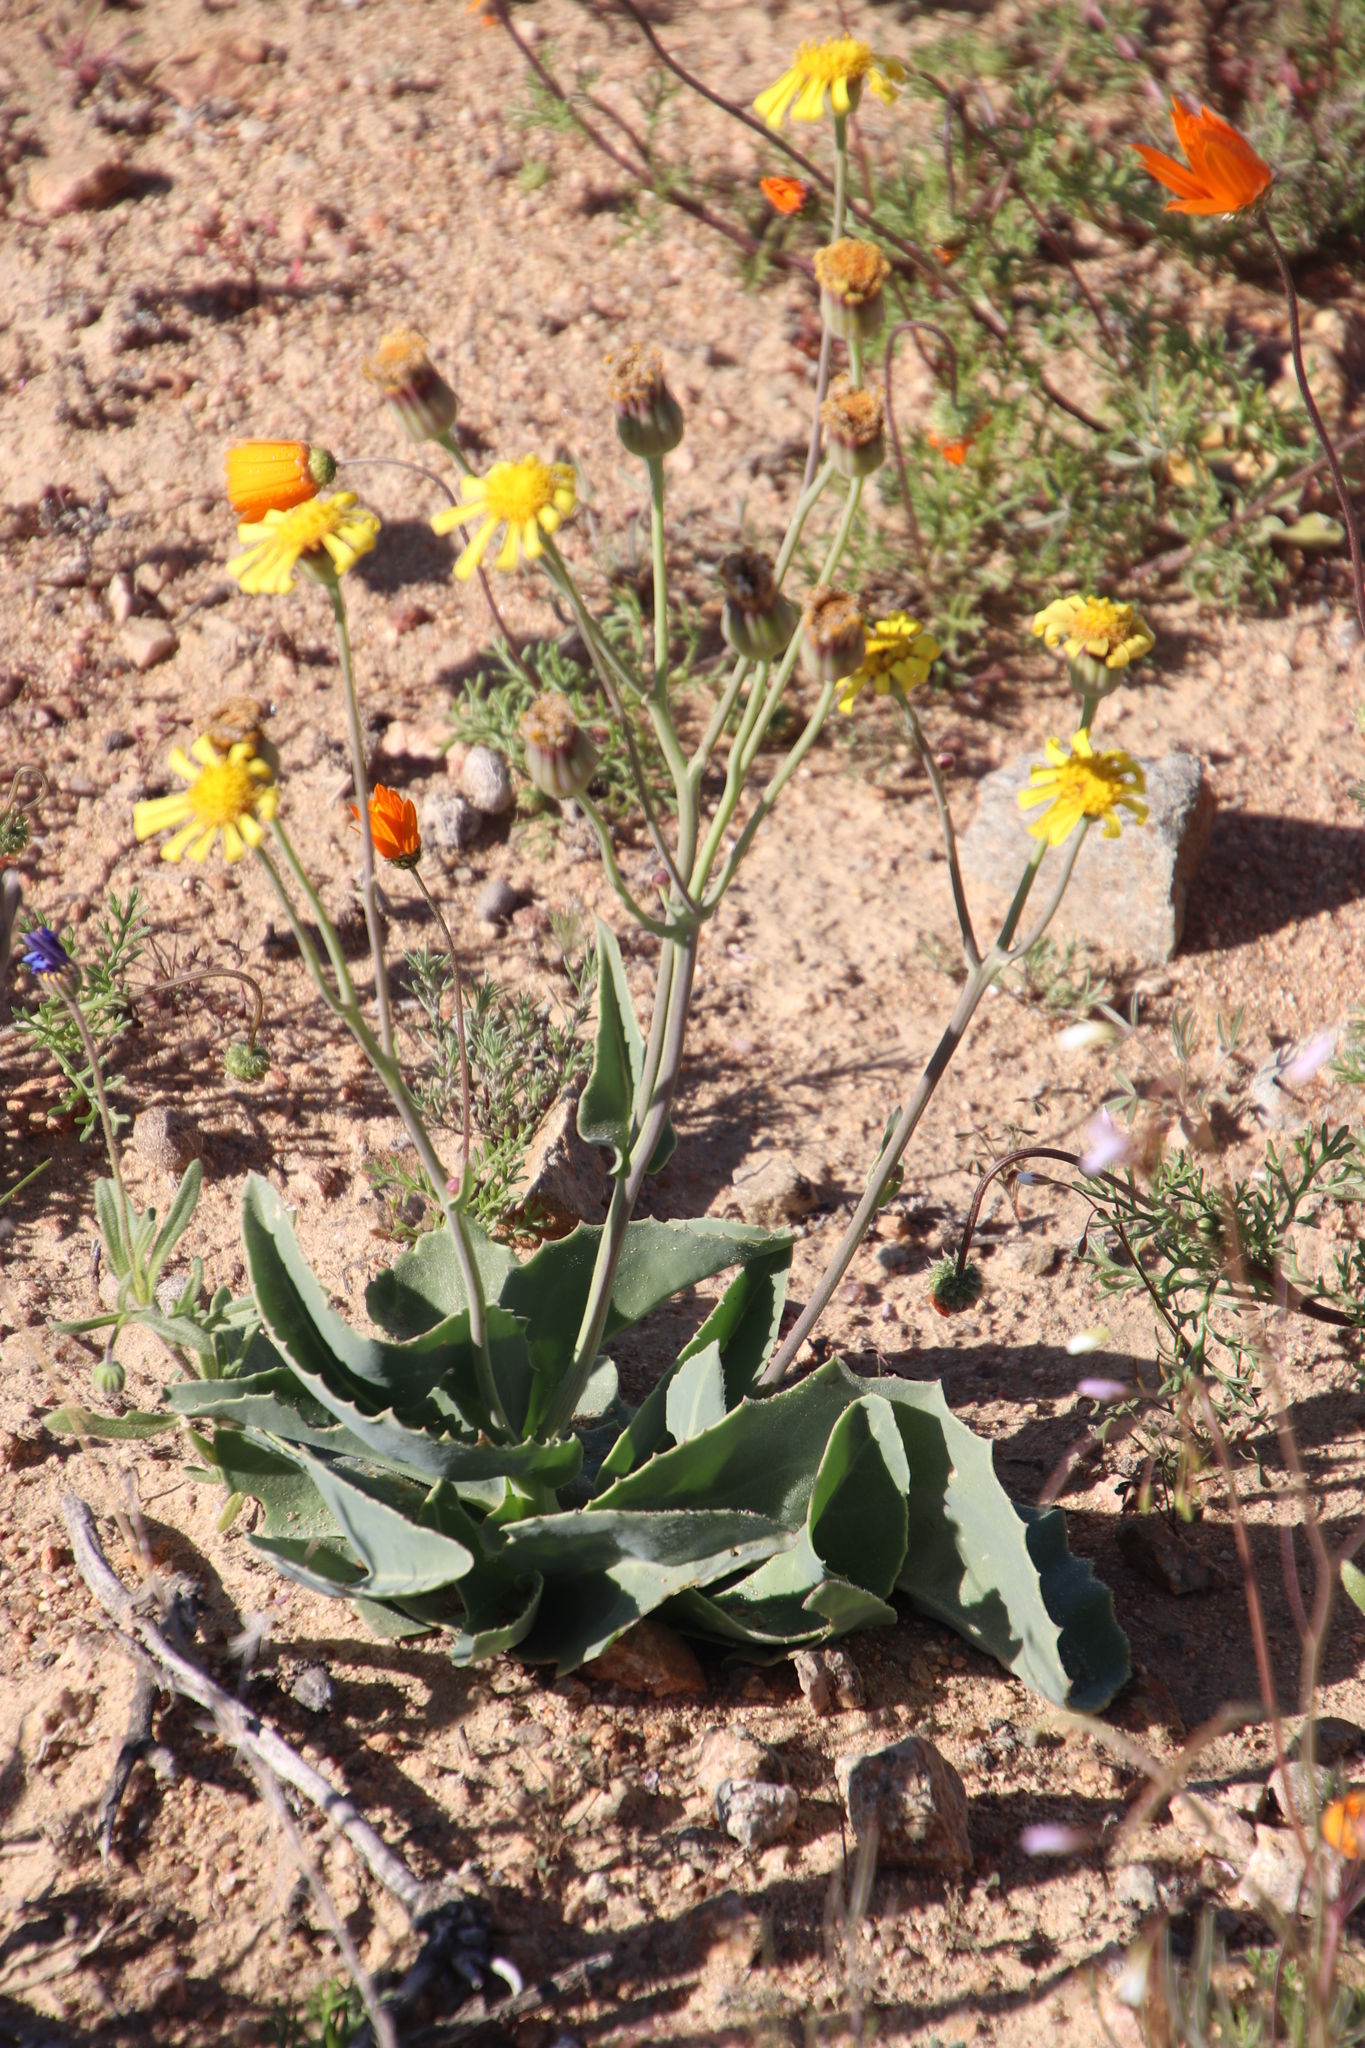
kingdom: Plantae
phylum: Tracheophyta
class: Magnoliopsida
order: Asterales
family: Asteraceae
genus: Othonna
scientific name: Othonna macrophylla
